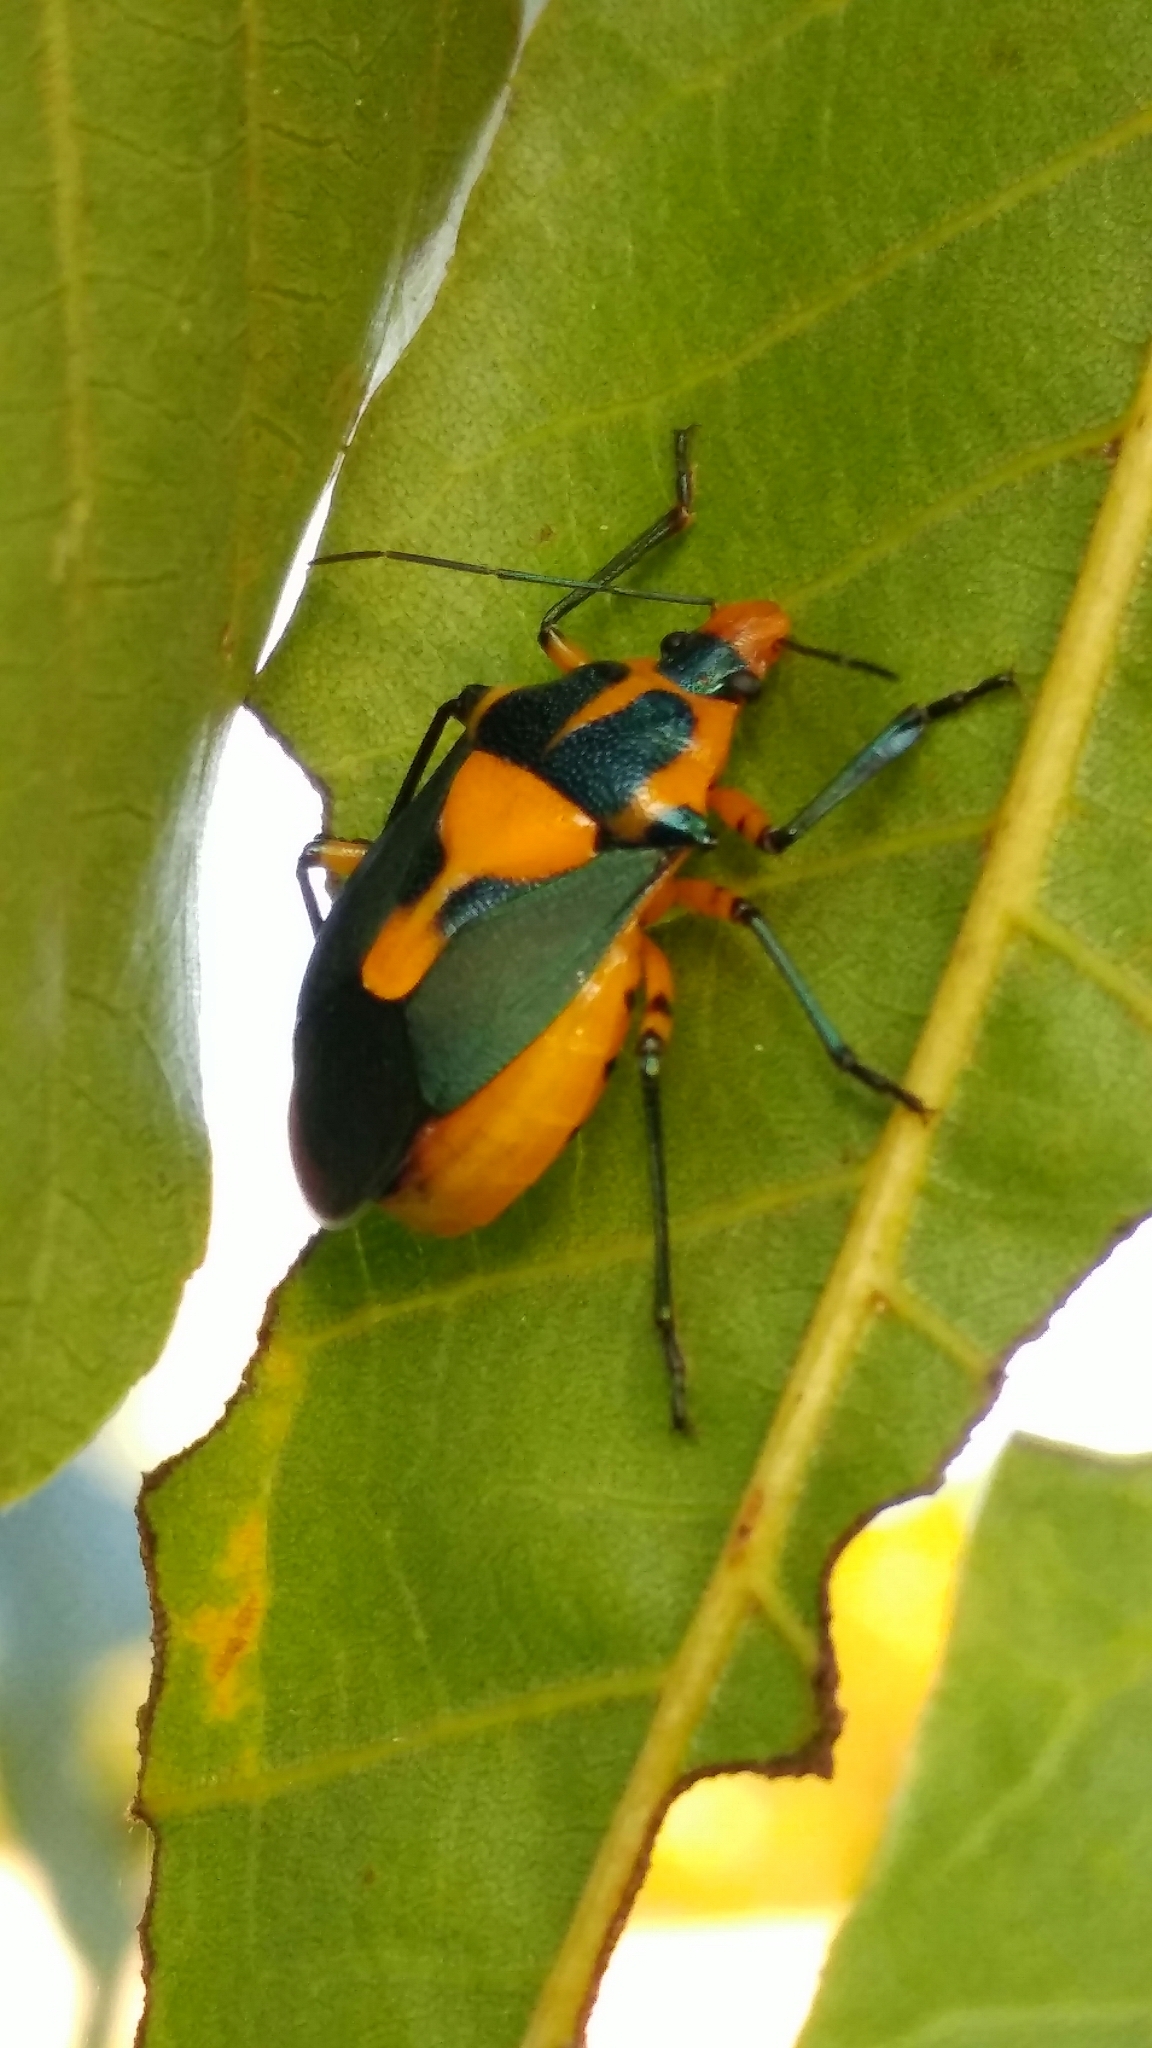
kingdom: Animalia
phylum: Arthropoda
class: Insecta
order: Hemiptera
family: Pentatomidae
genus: Euthyrhynchus
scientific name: Euthyrhynchus floridanus
